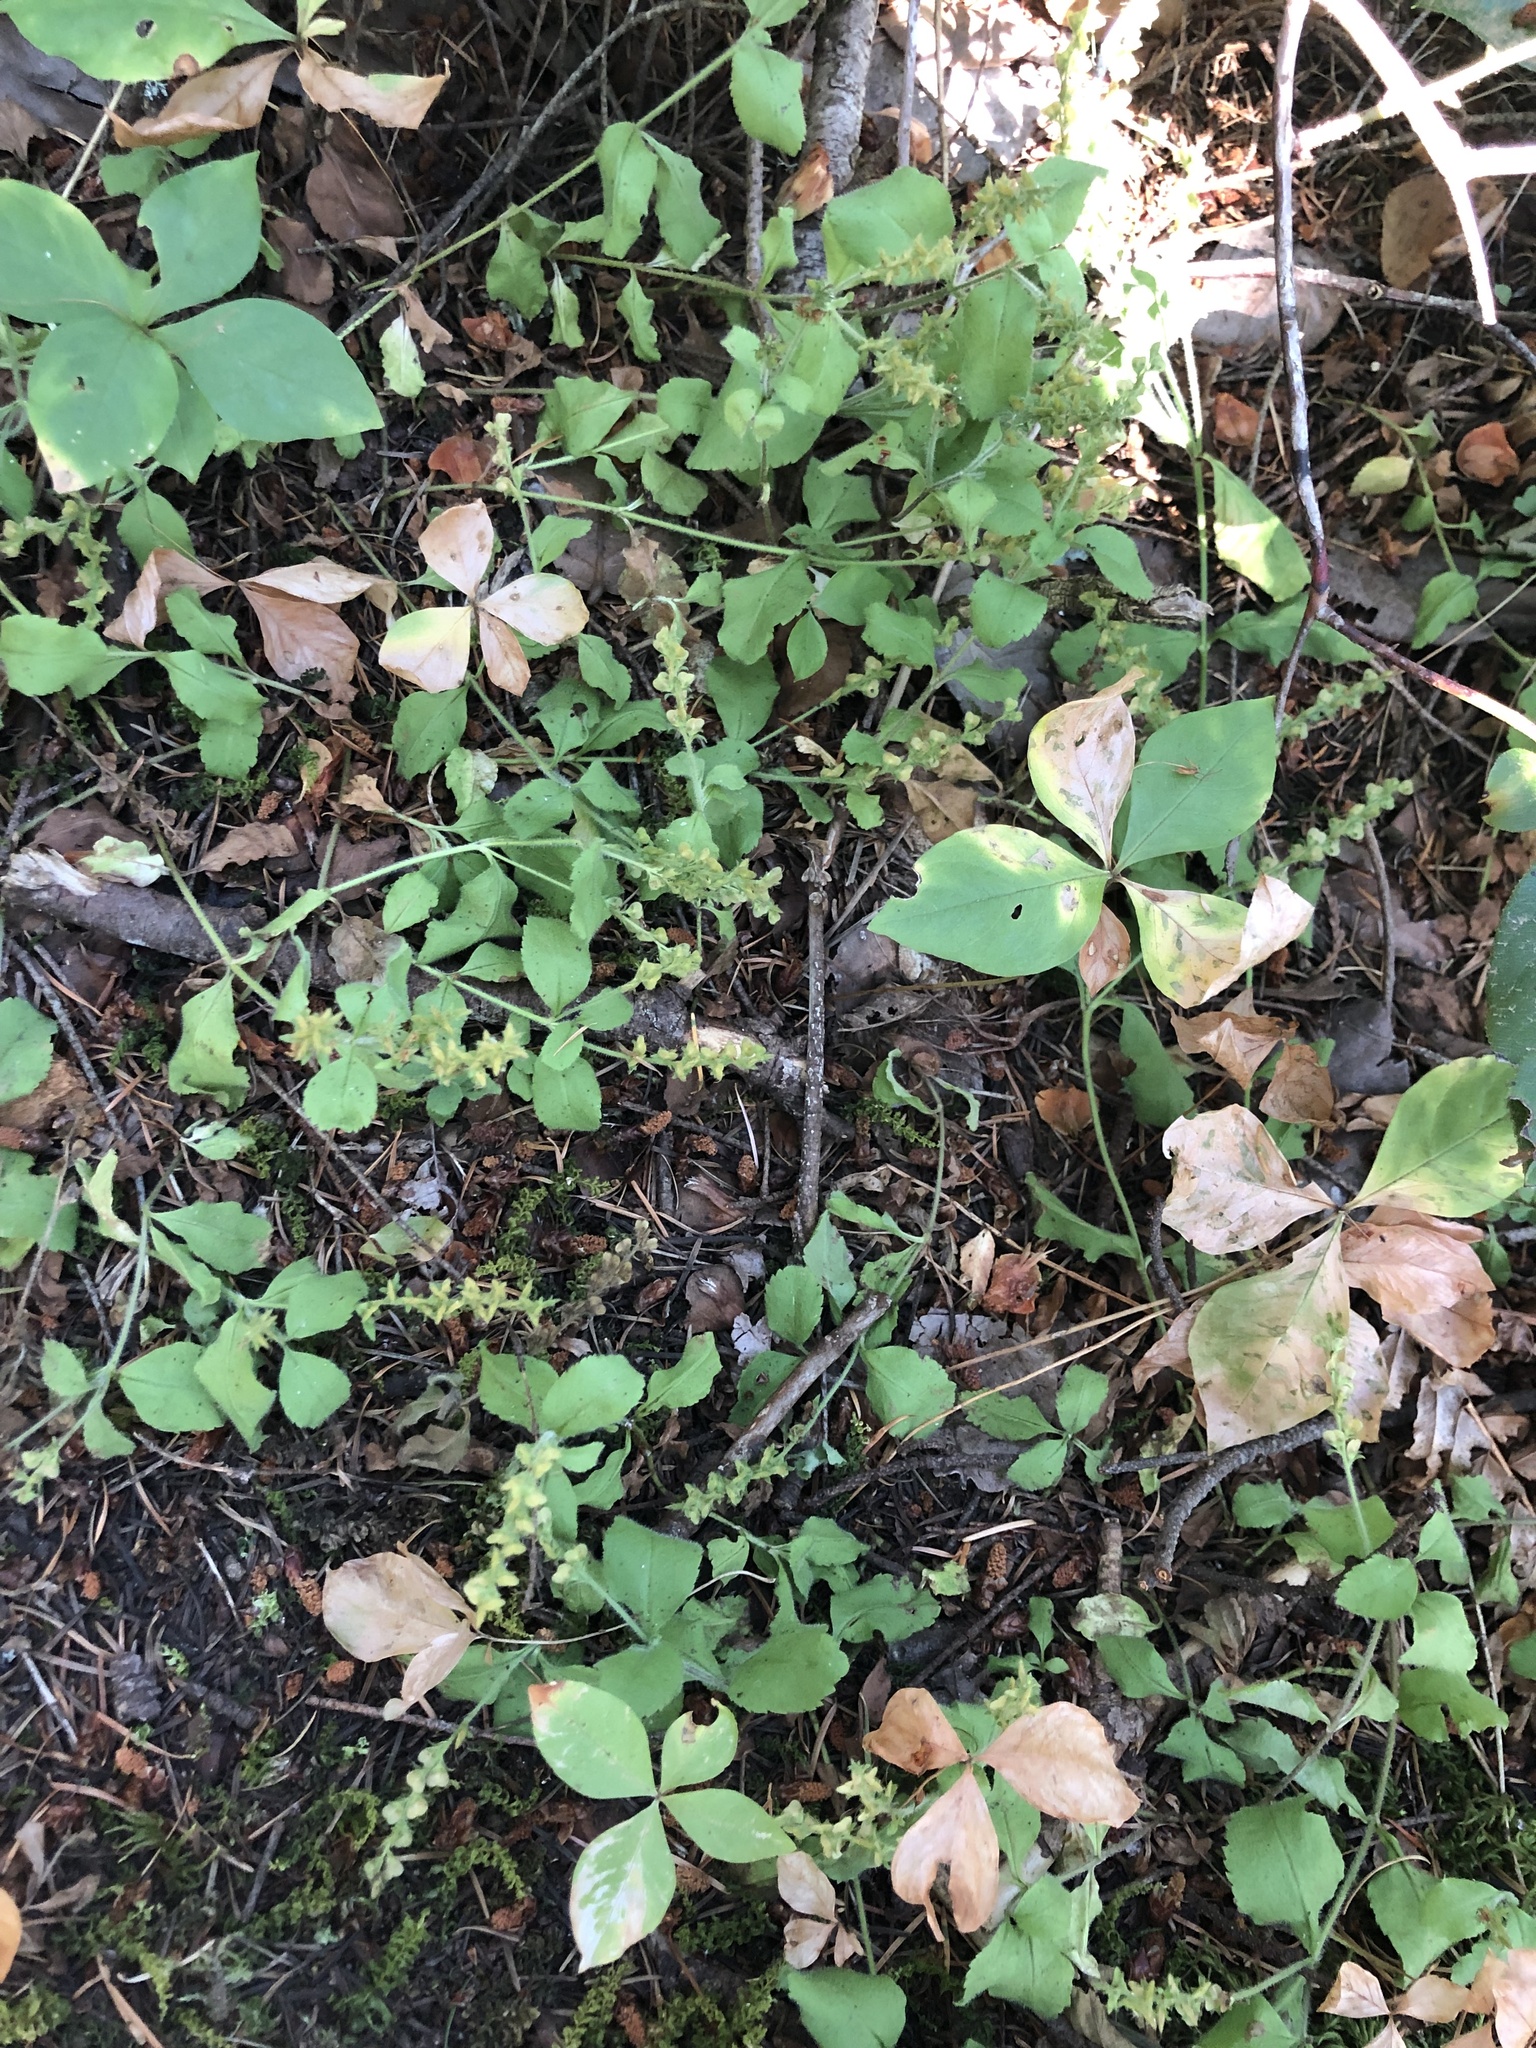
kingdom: Plantae
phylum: Tracheophyta
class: Magnoliopsida
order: Lamiales
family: Plantaginaceae
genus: Veronica
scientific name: Veronica officinalis
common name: Common speedwell
